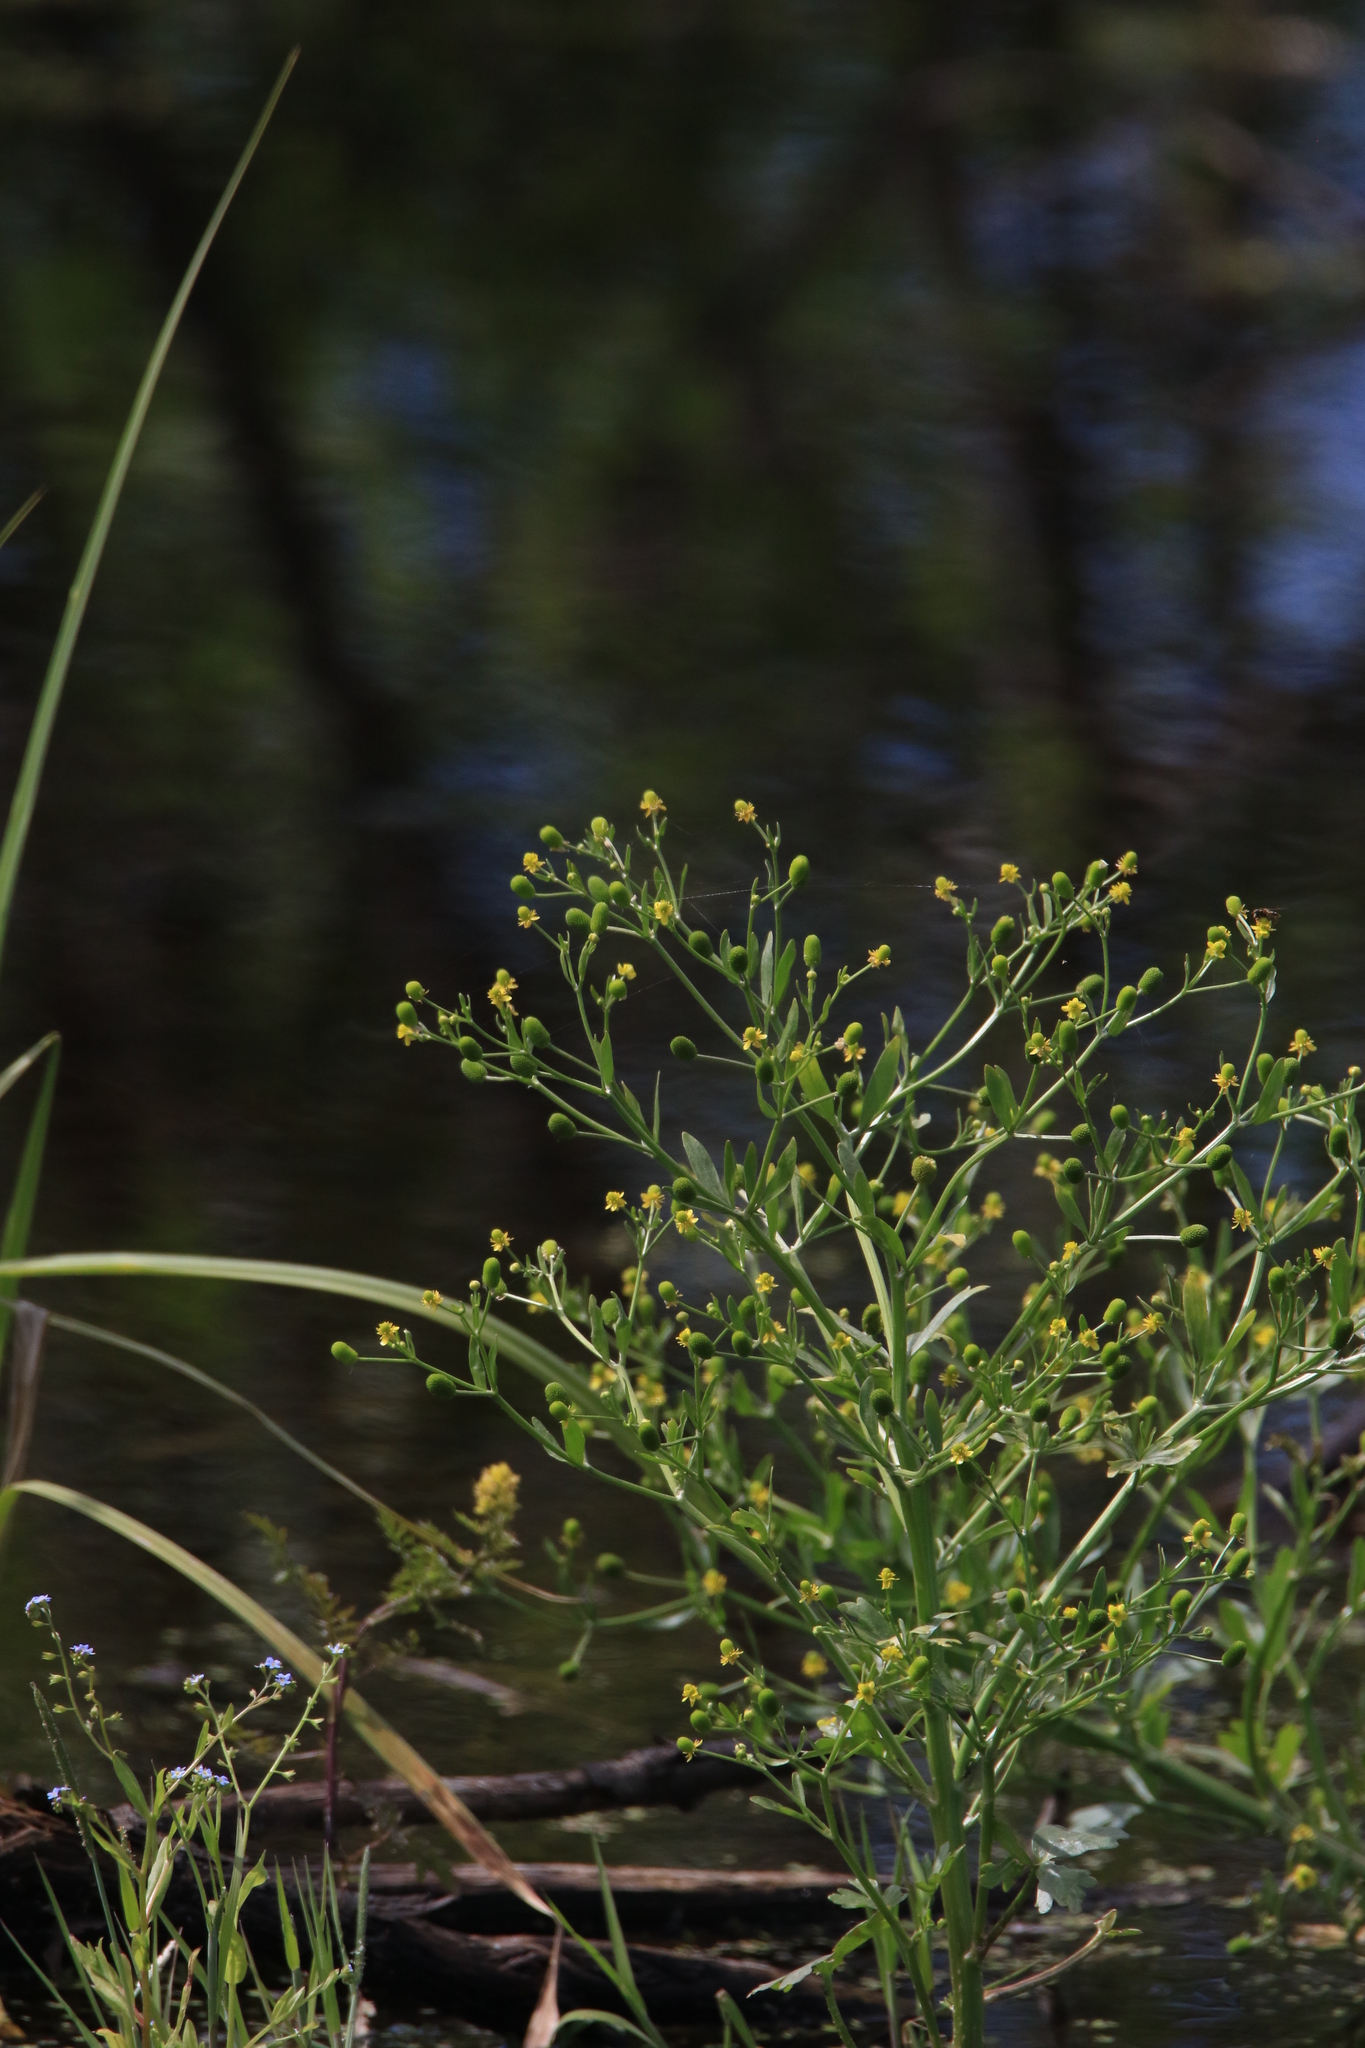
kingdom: Plantae
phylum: Tracheophyta
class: Magnoliopsida
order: Ranunculales
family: Ranunculaceae
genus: Ranunculus
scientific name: Ranunculus sceleratus
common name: Celery-leaved buttercup
